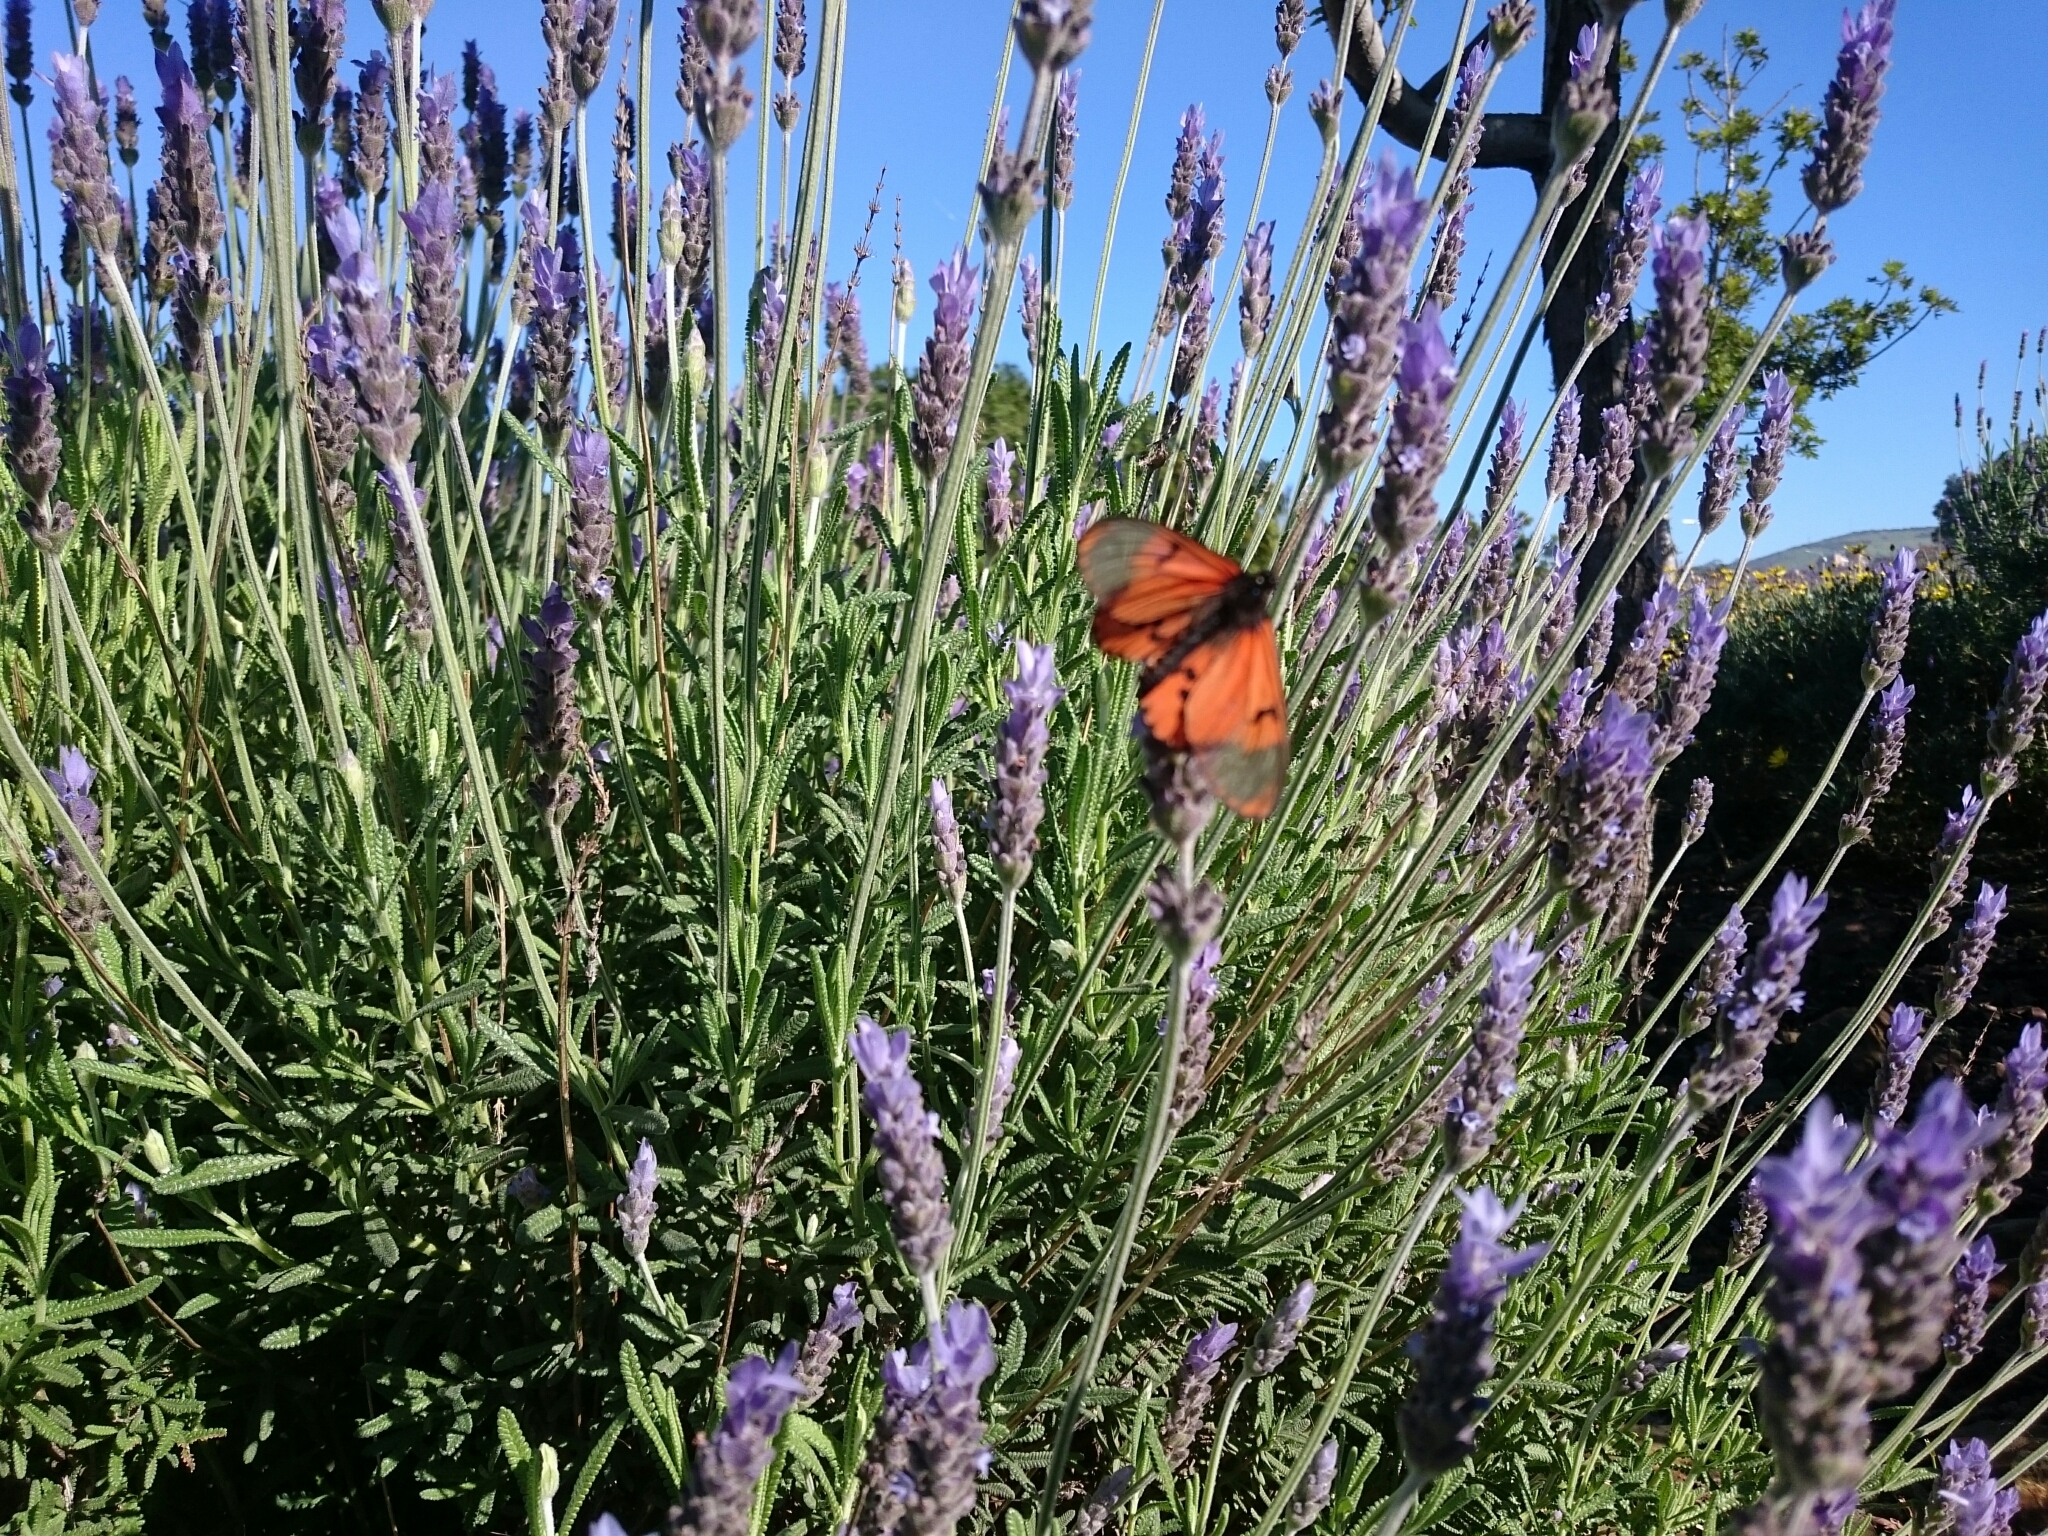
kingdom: Animalia
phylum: Arthropoda
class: Insecta
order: Lepidoptera
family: Nymphalidae
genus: Acraea
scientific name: Acraea horta
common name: Garden acraea
